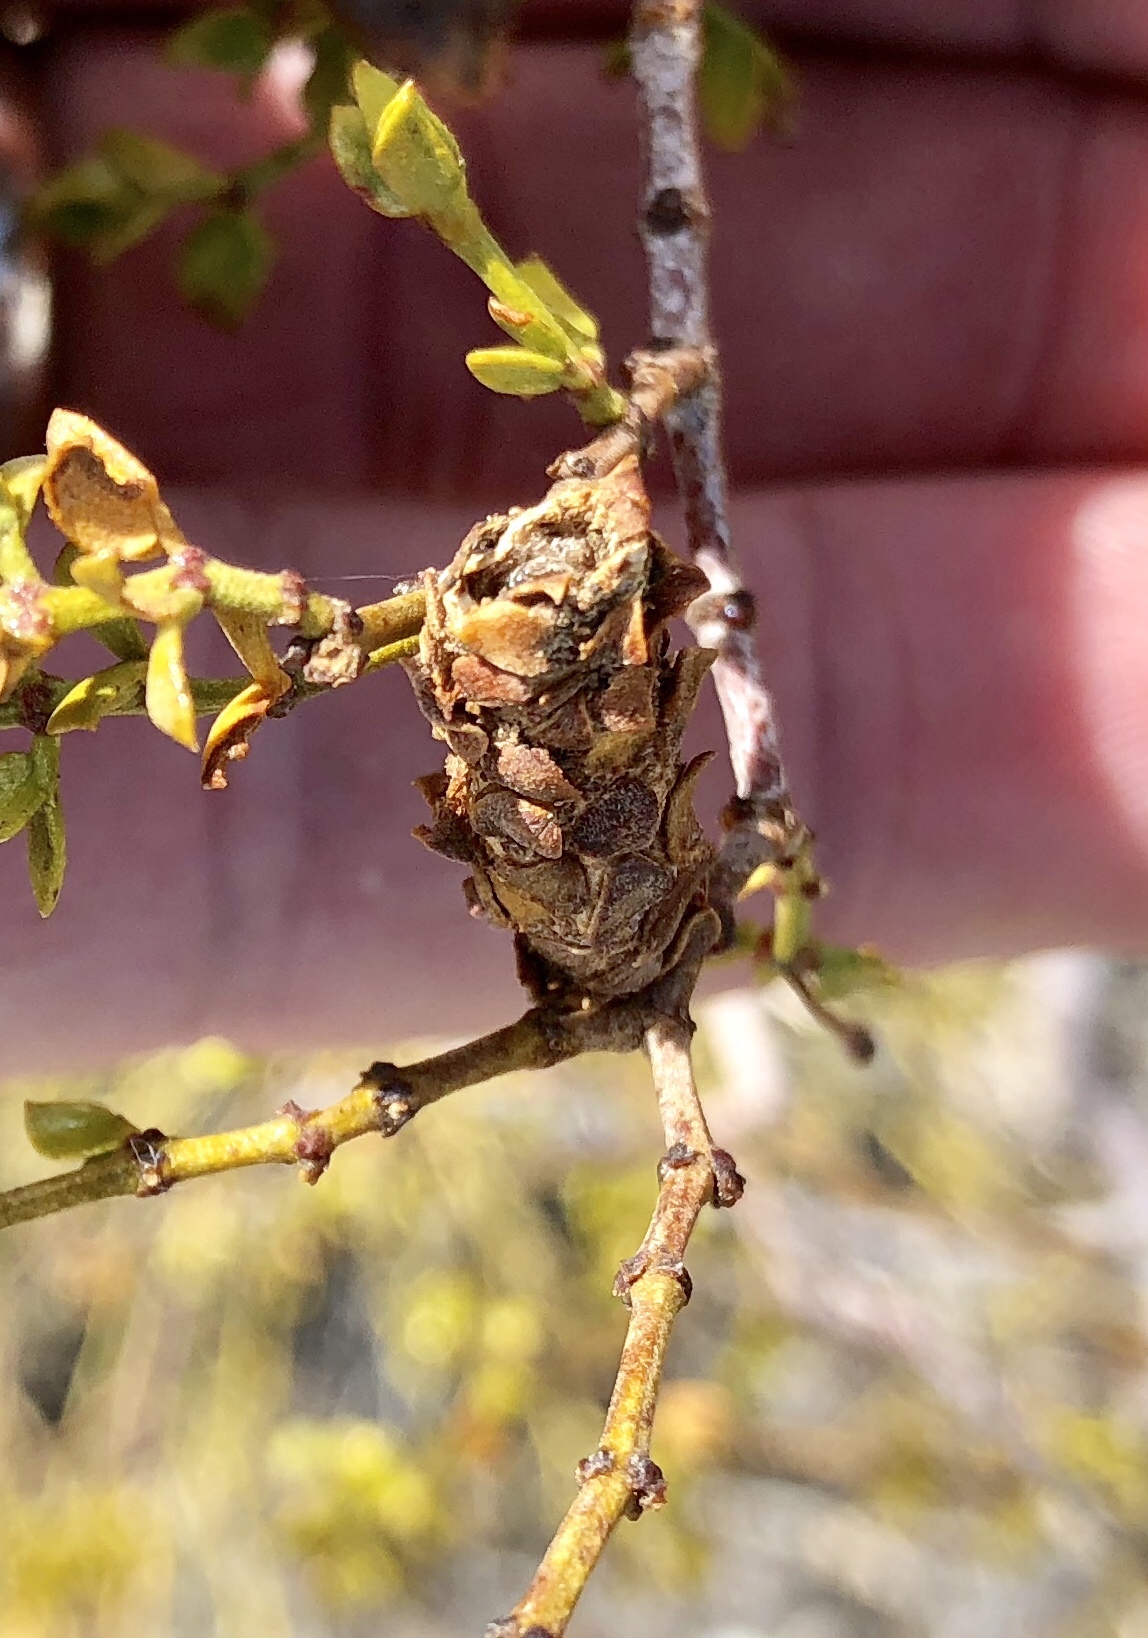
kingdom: Animalia
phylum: Arthropoda
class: Insecta
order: Lepidoptera
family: Psychidae
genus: Thyridopteryx
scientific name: Thyridopteryx meadii
